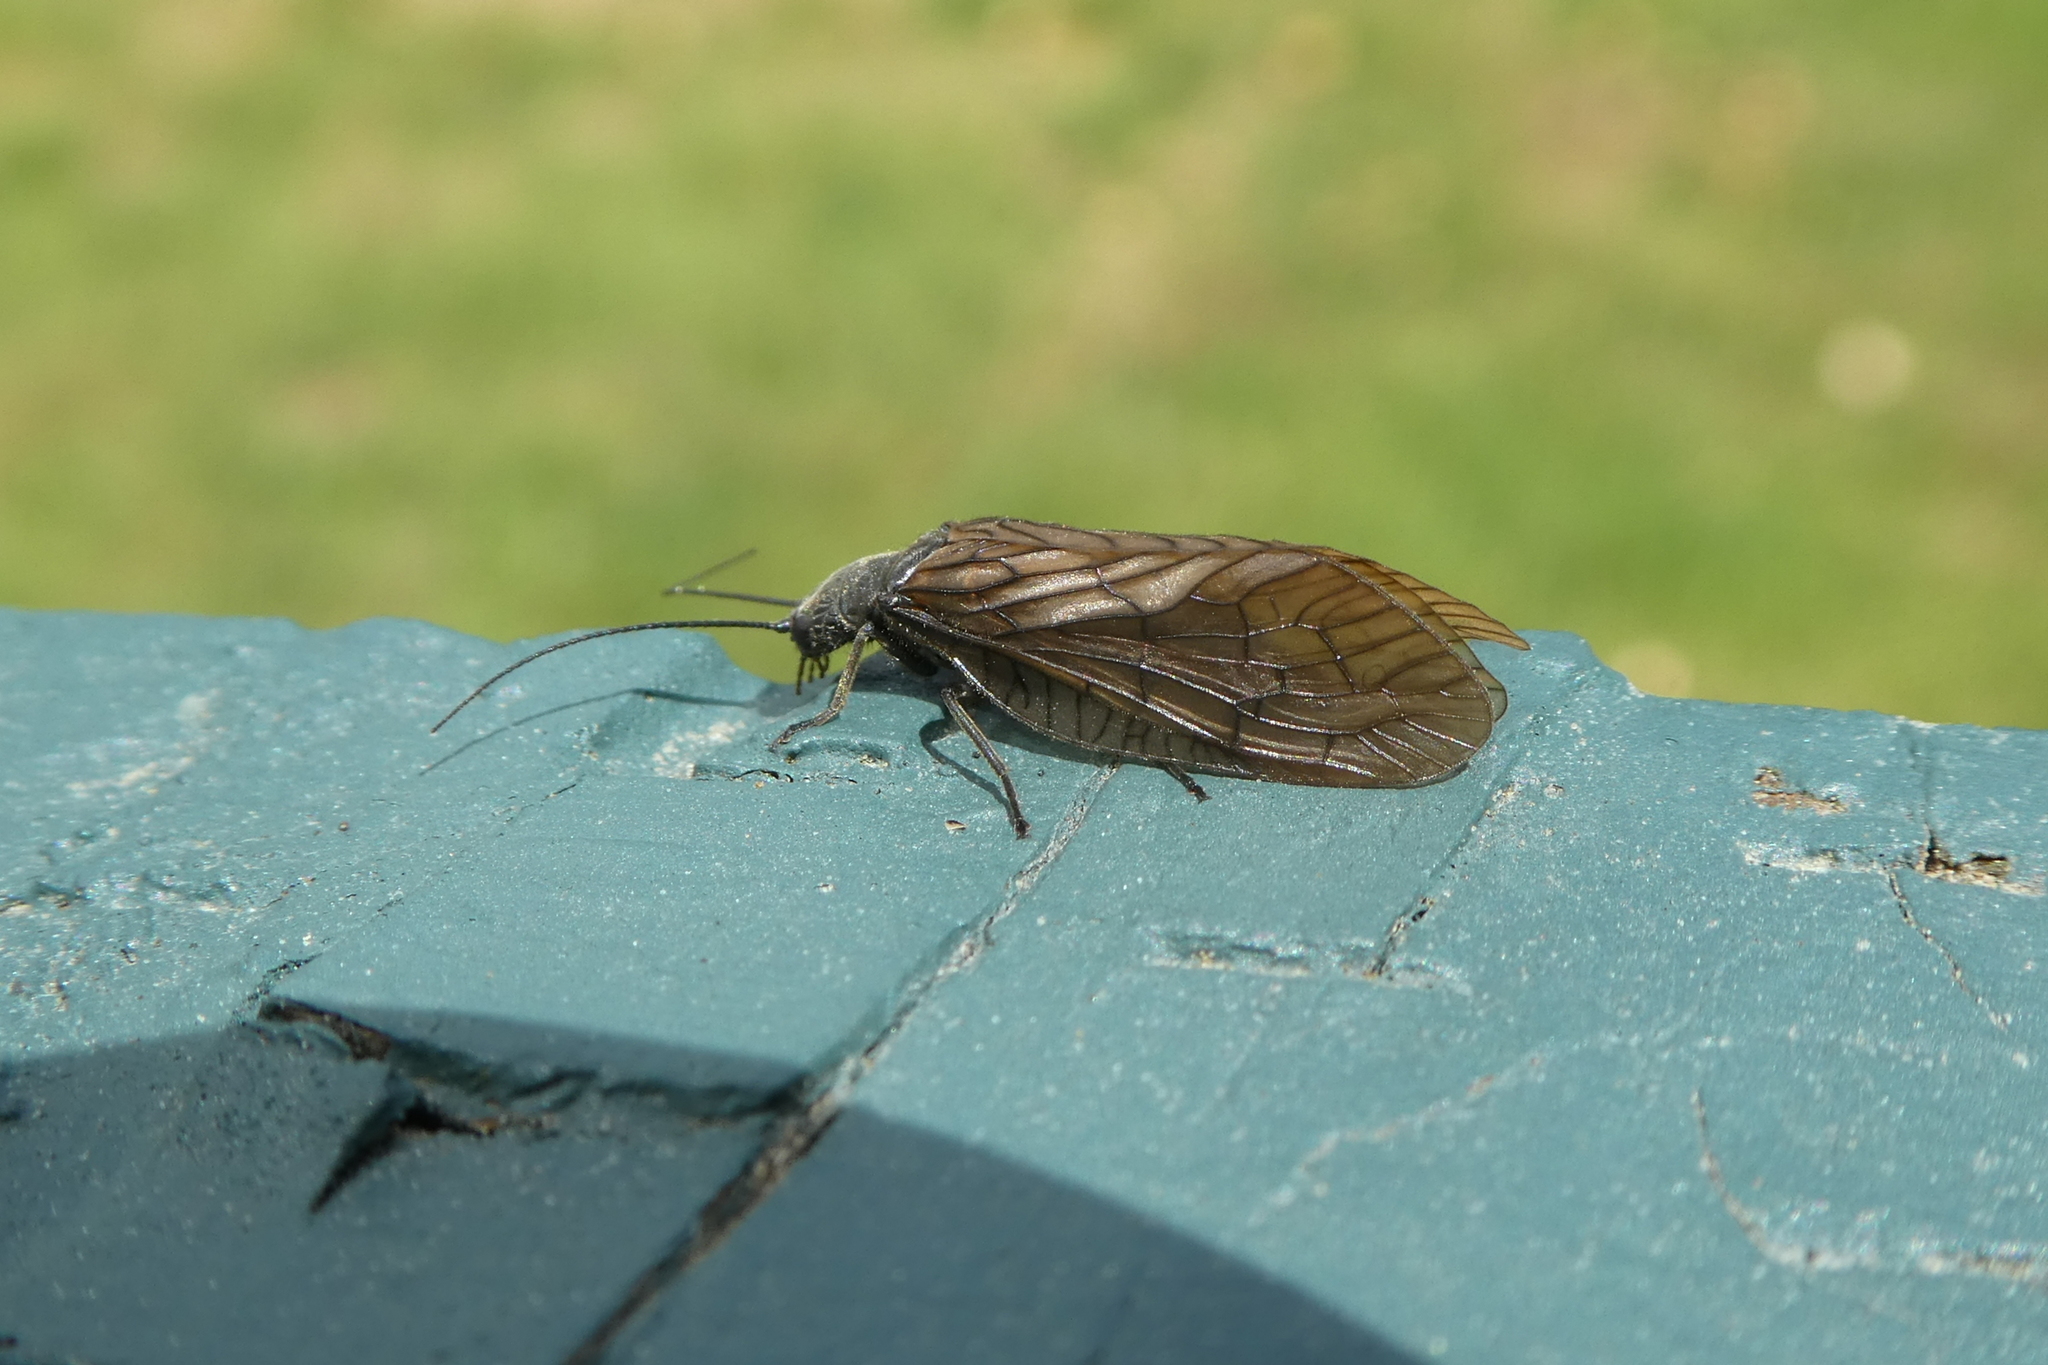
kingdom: Animalia
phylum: Arthropoda
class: Insecta
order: Megaloptera
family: Sialidae
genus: Sialis
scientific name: Sialis
